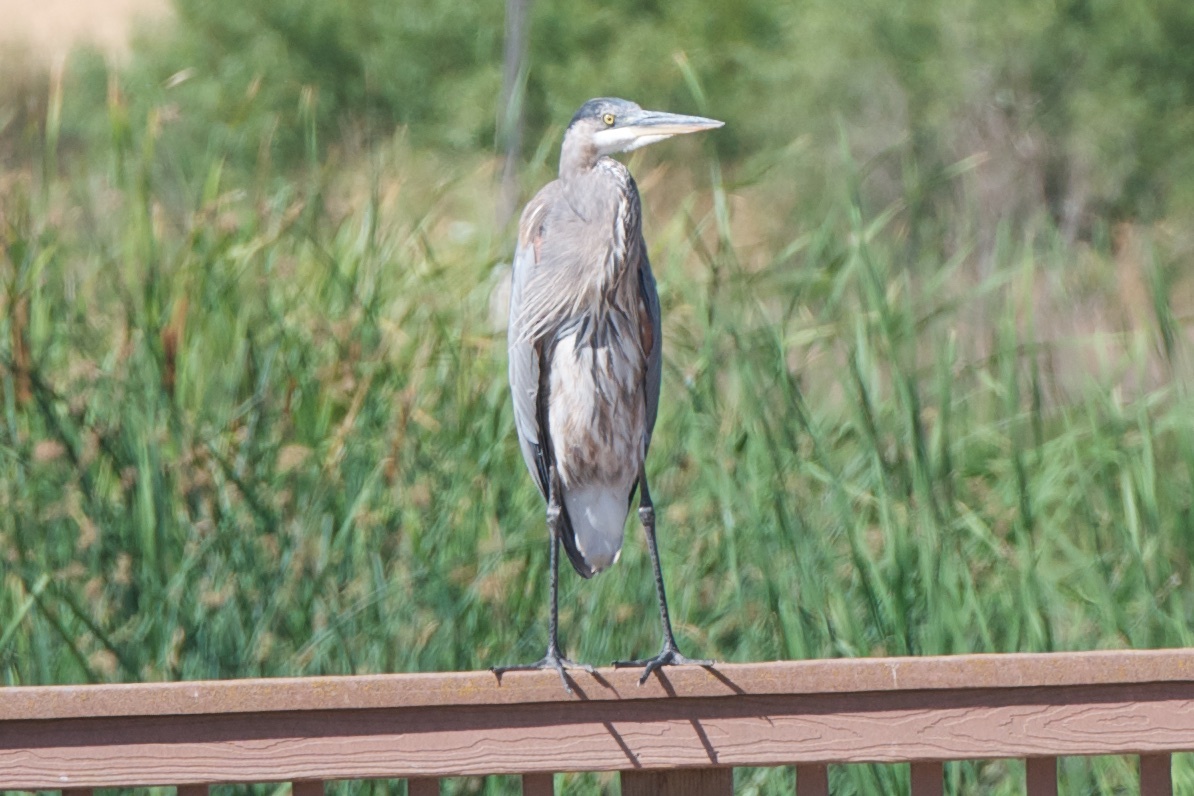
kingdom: Animalia
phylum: Chordata
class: Aves
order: Pelecaniformes
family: Ardeidae
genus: Ardea
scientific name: Ardea herodias
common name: Great blue heron
